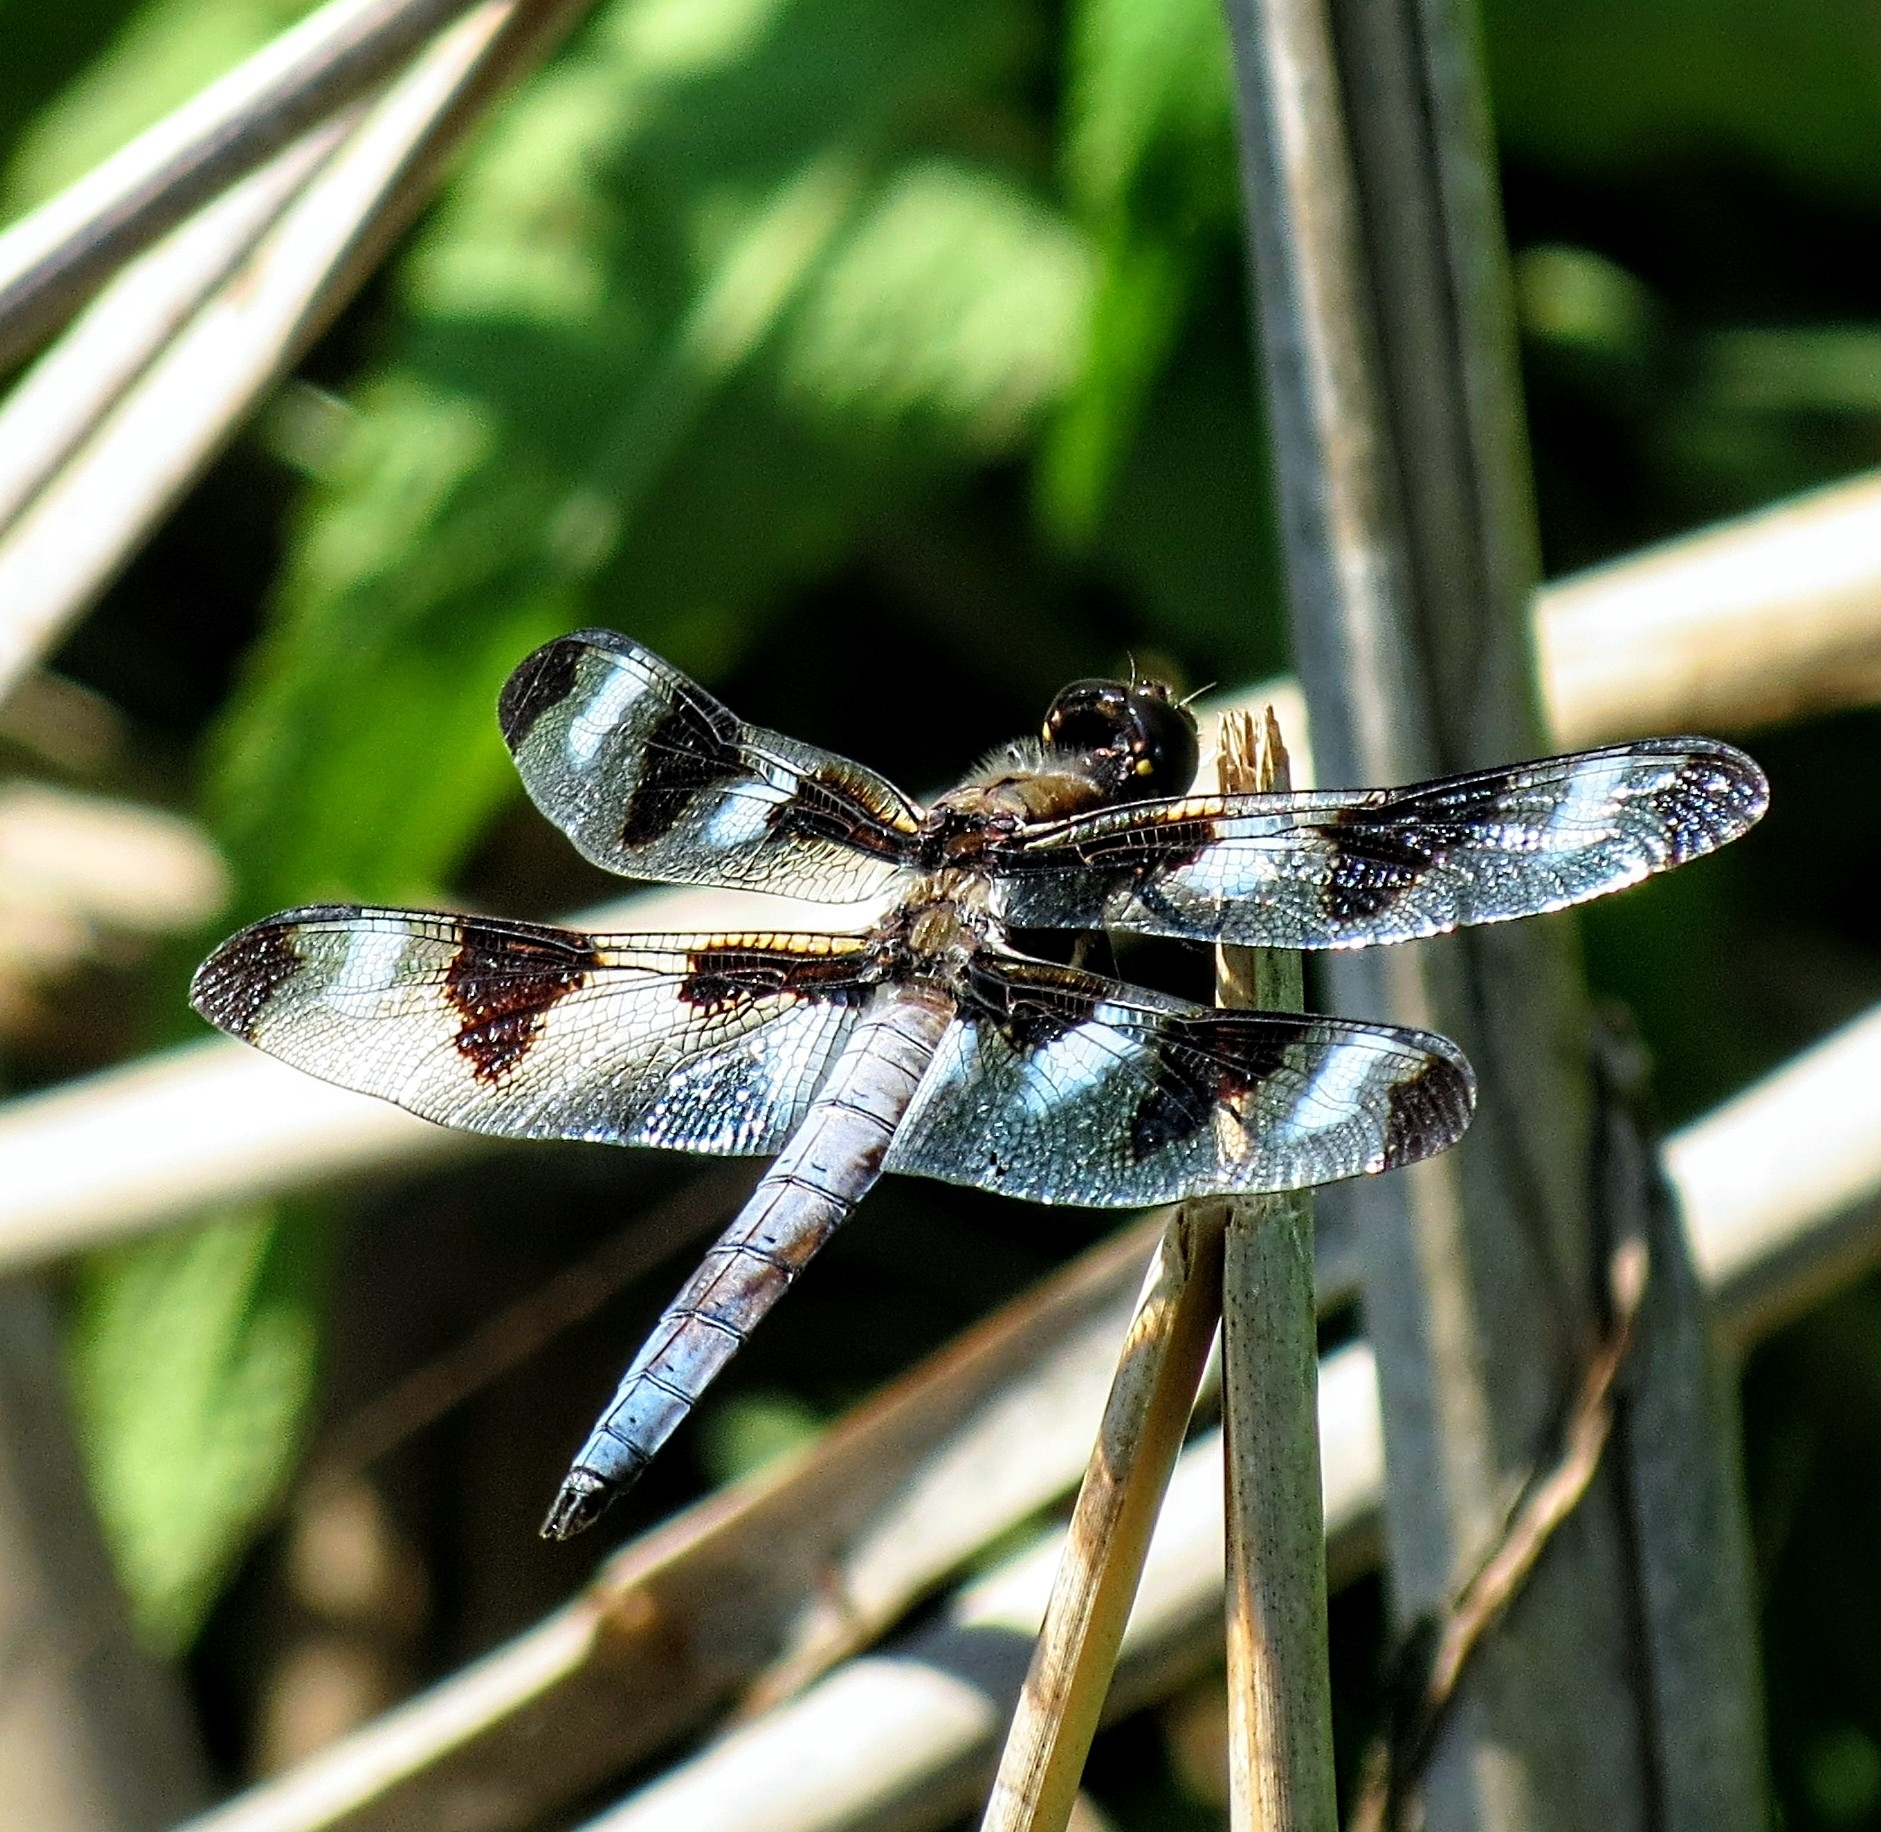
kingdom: Animalia
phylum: Arthropoda
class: Insecta
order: Odonata
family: Libellulidae
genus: Libellula
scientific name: Libellula pulchella
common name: Twelve-spotted skimmer
